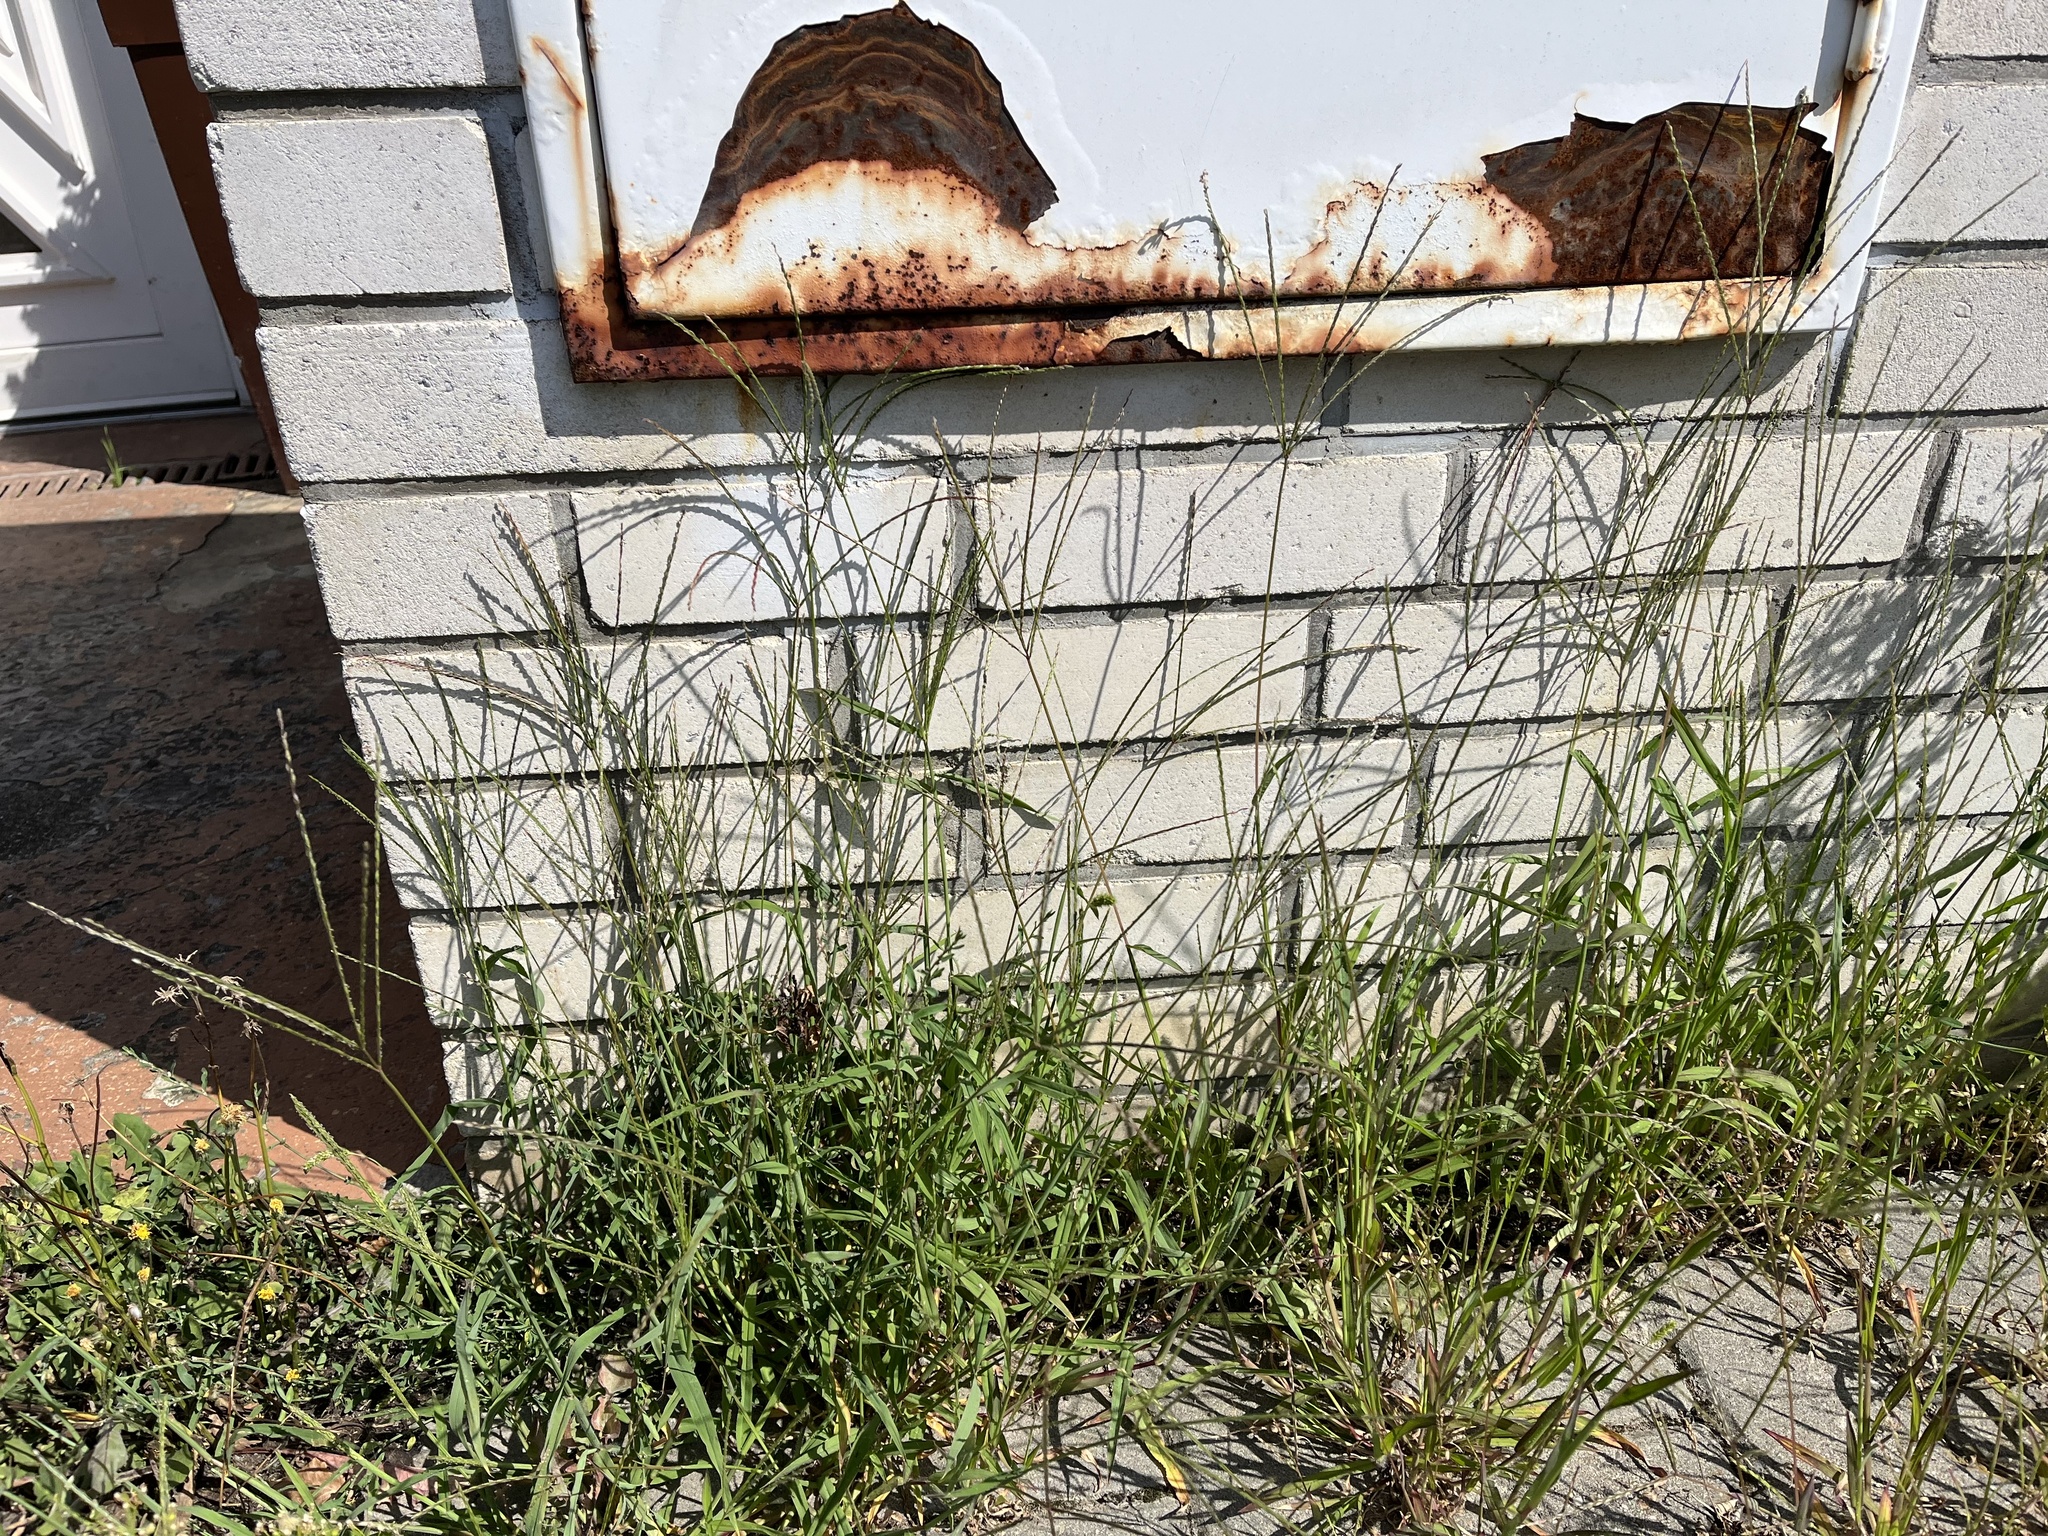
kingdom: Plantae
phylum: Tracheophyta
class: Liliopsida
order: Poales
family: Poaceae
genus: Digitaria
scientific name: Digitaria sanguinalis
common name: Hairy crabgrass
